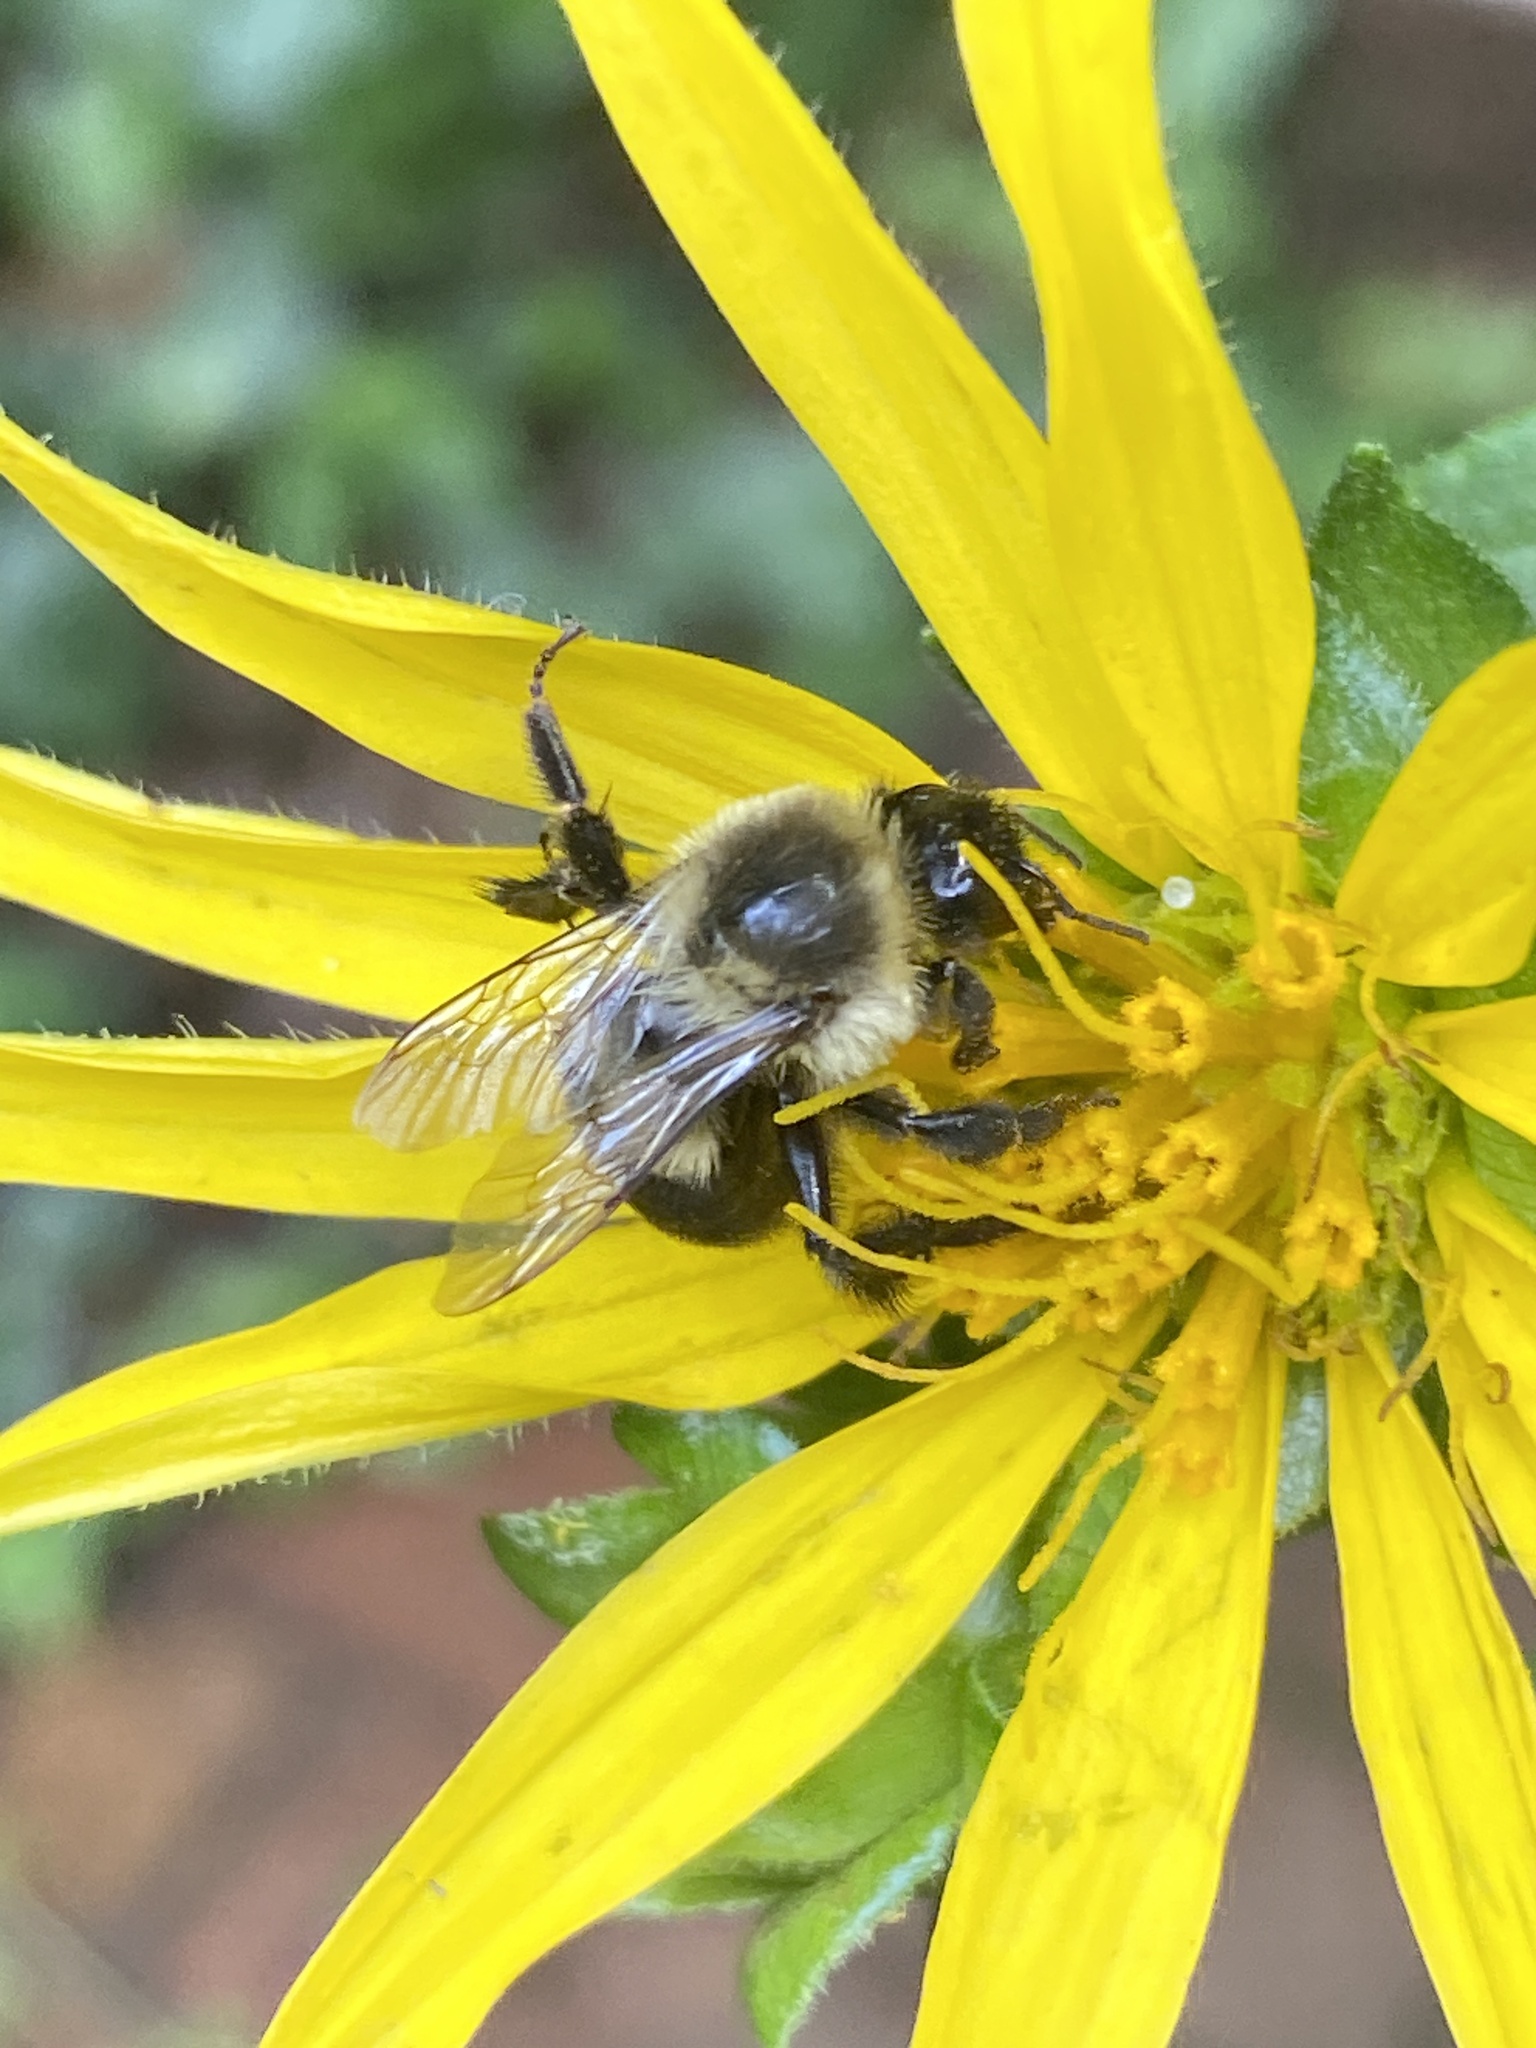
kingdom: Animalia
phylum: Arthropoda
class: Insecta
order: Hymenoptera
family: Apidae
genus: Bombus
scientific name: Bombus impatiens
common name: Common eastern bumble bee
